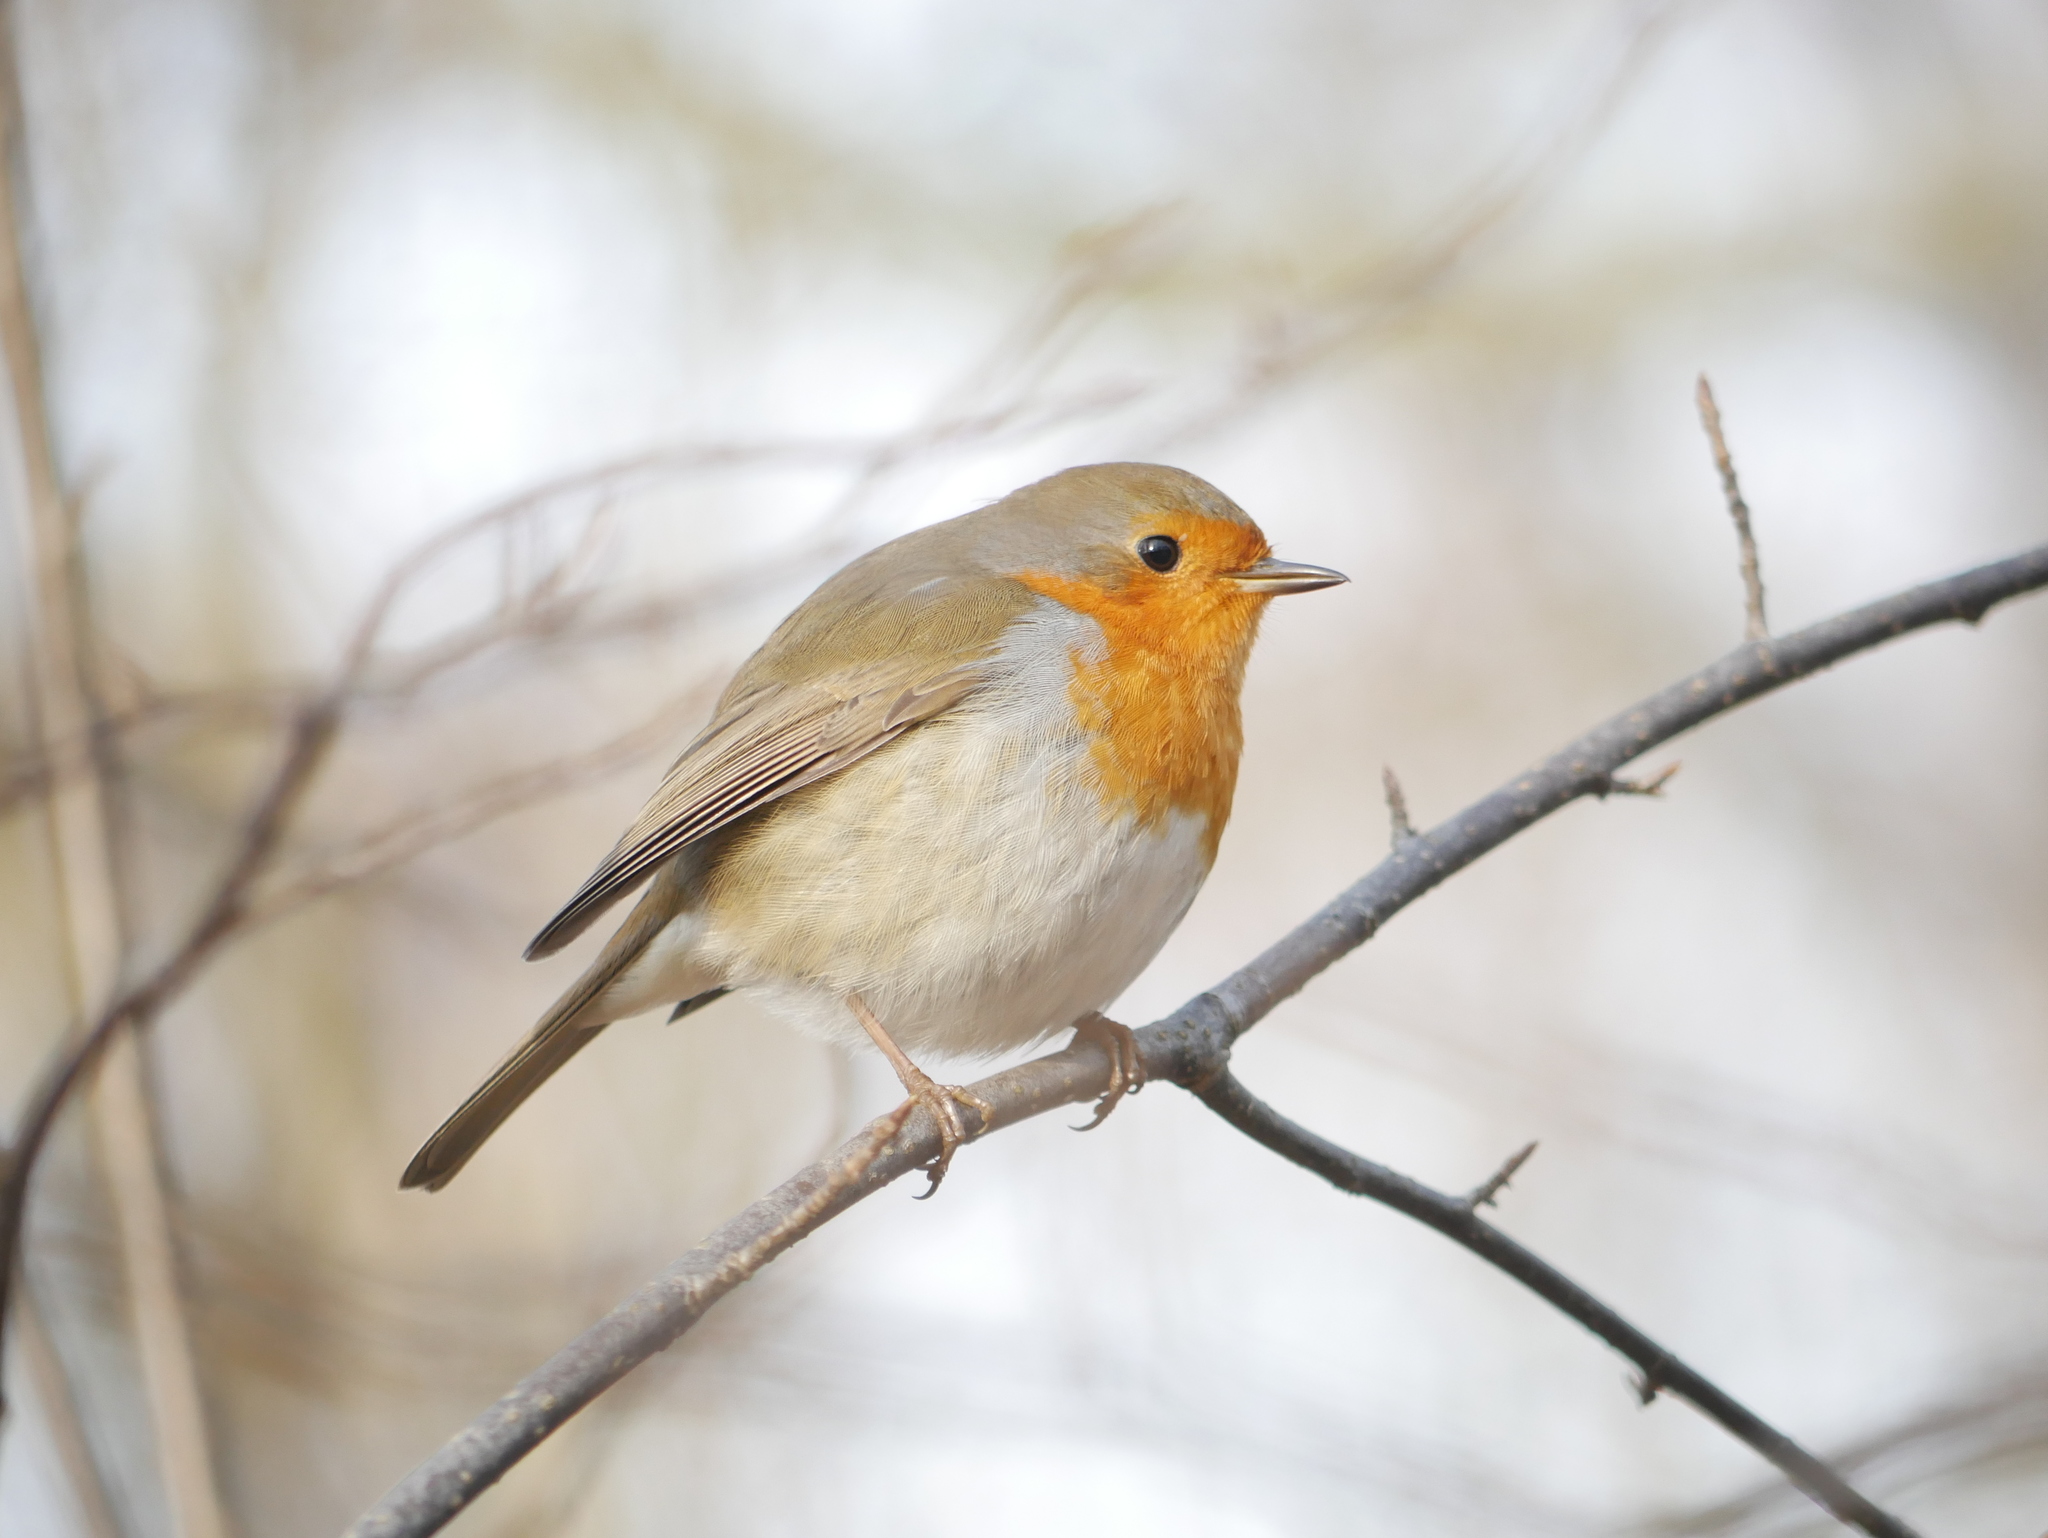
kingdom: Animalia
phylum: Chordata
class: Aves
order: Passeriformes
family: Muscicapidae
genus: Erithacus
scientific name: Erithacus rubecula
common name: European robin
